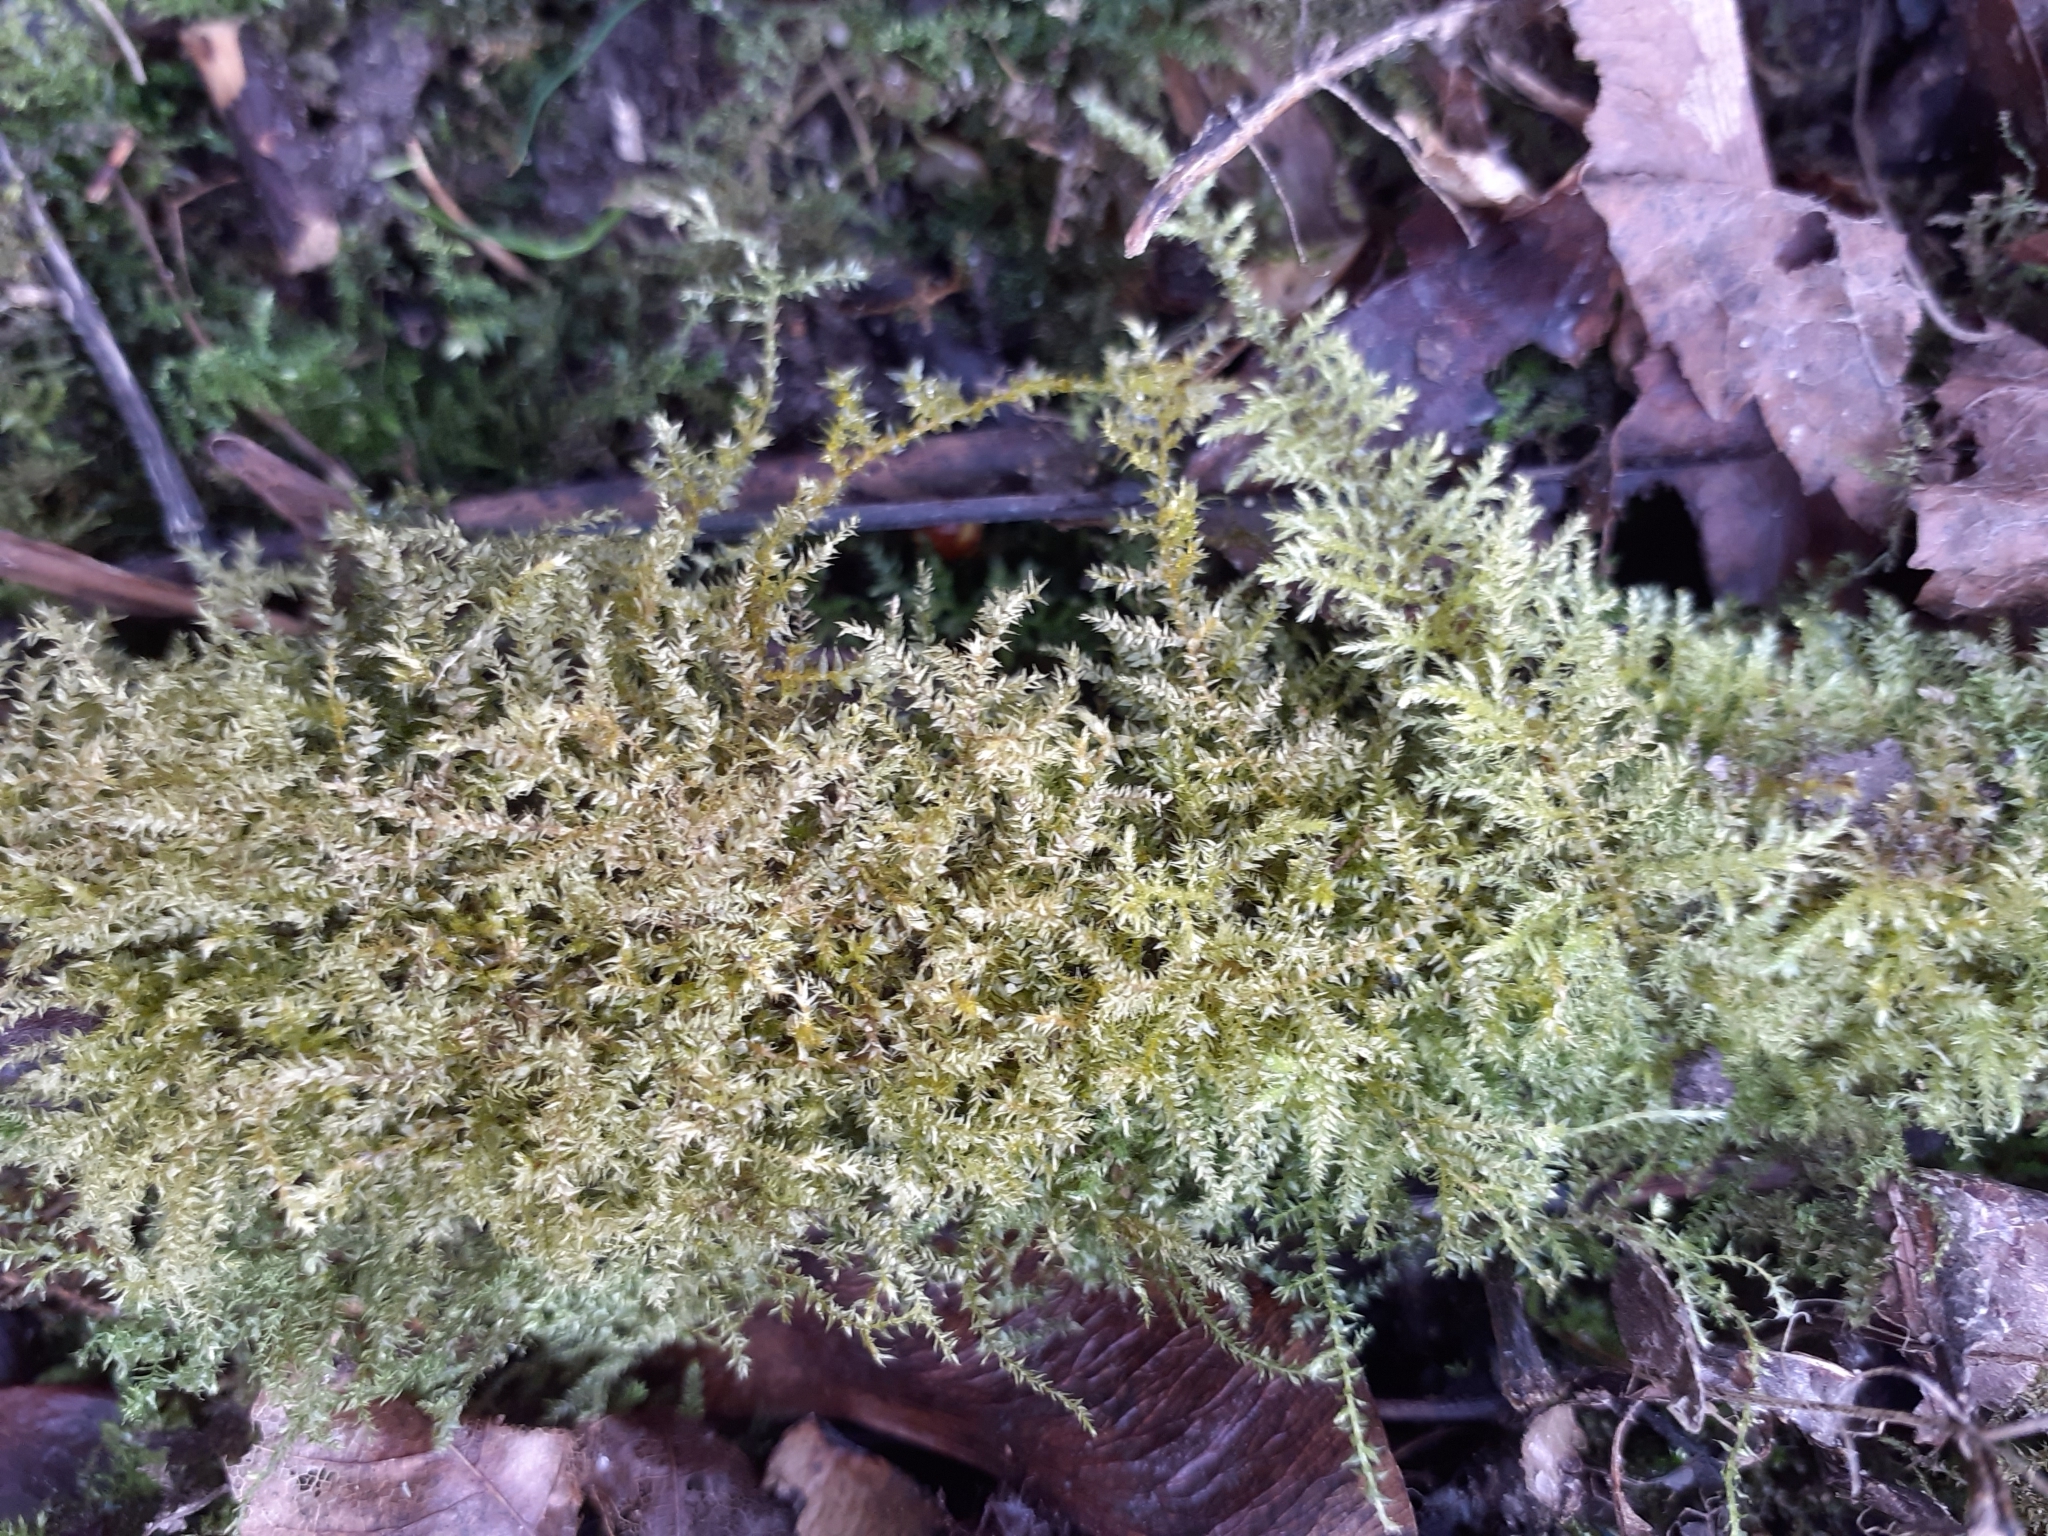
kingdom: Plantae
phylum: Bryophyta
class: Bryopsida
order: Hypnales
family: Brachytheciaceae
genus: Oxyrrhynchium
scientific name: Oxyrrhynchium hians
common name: Spreading beaked moss
